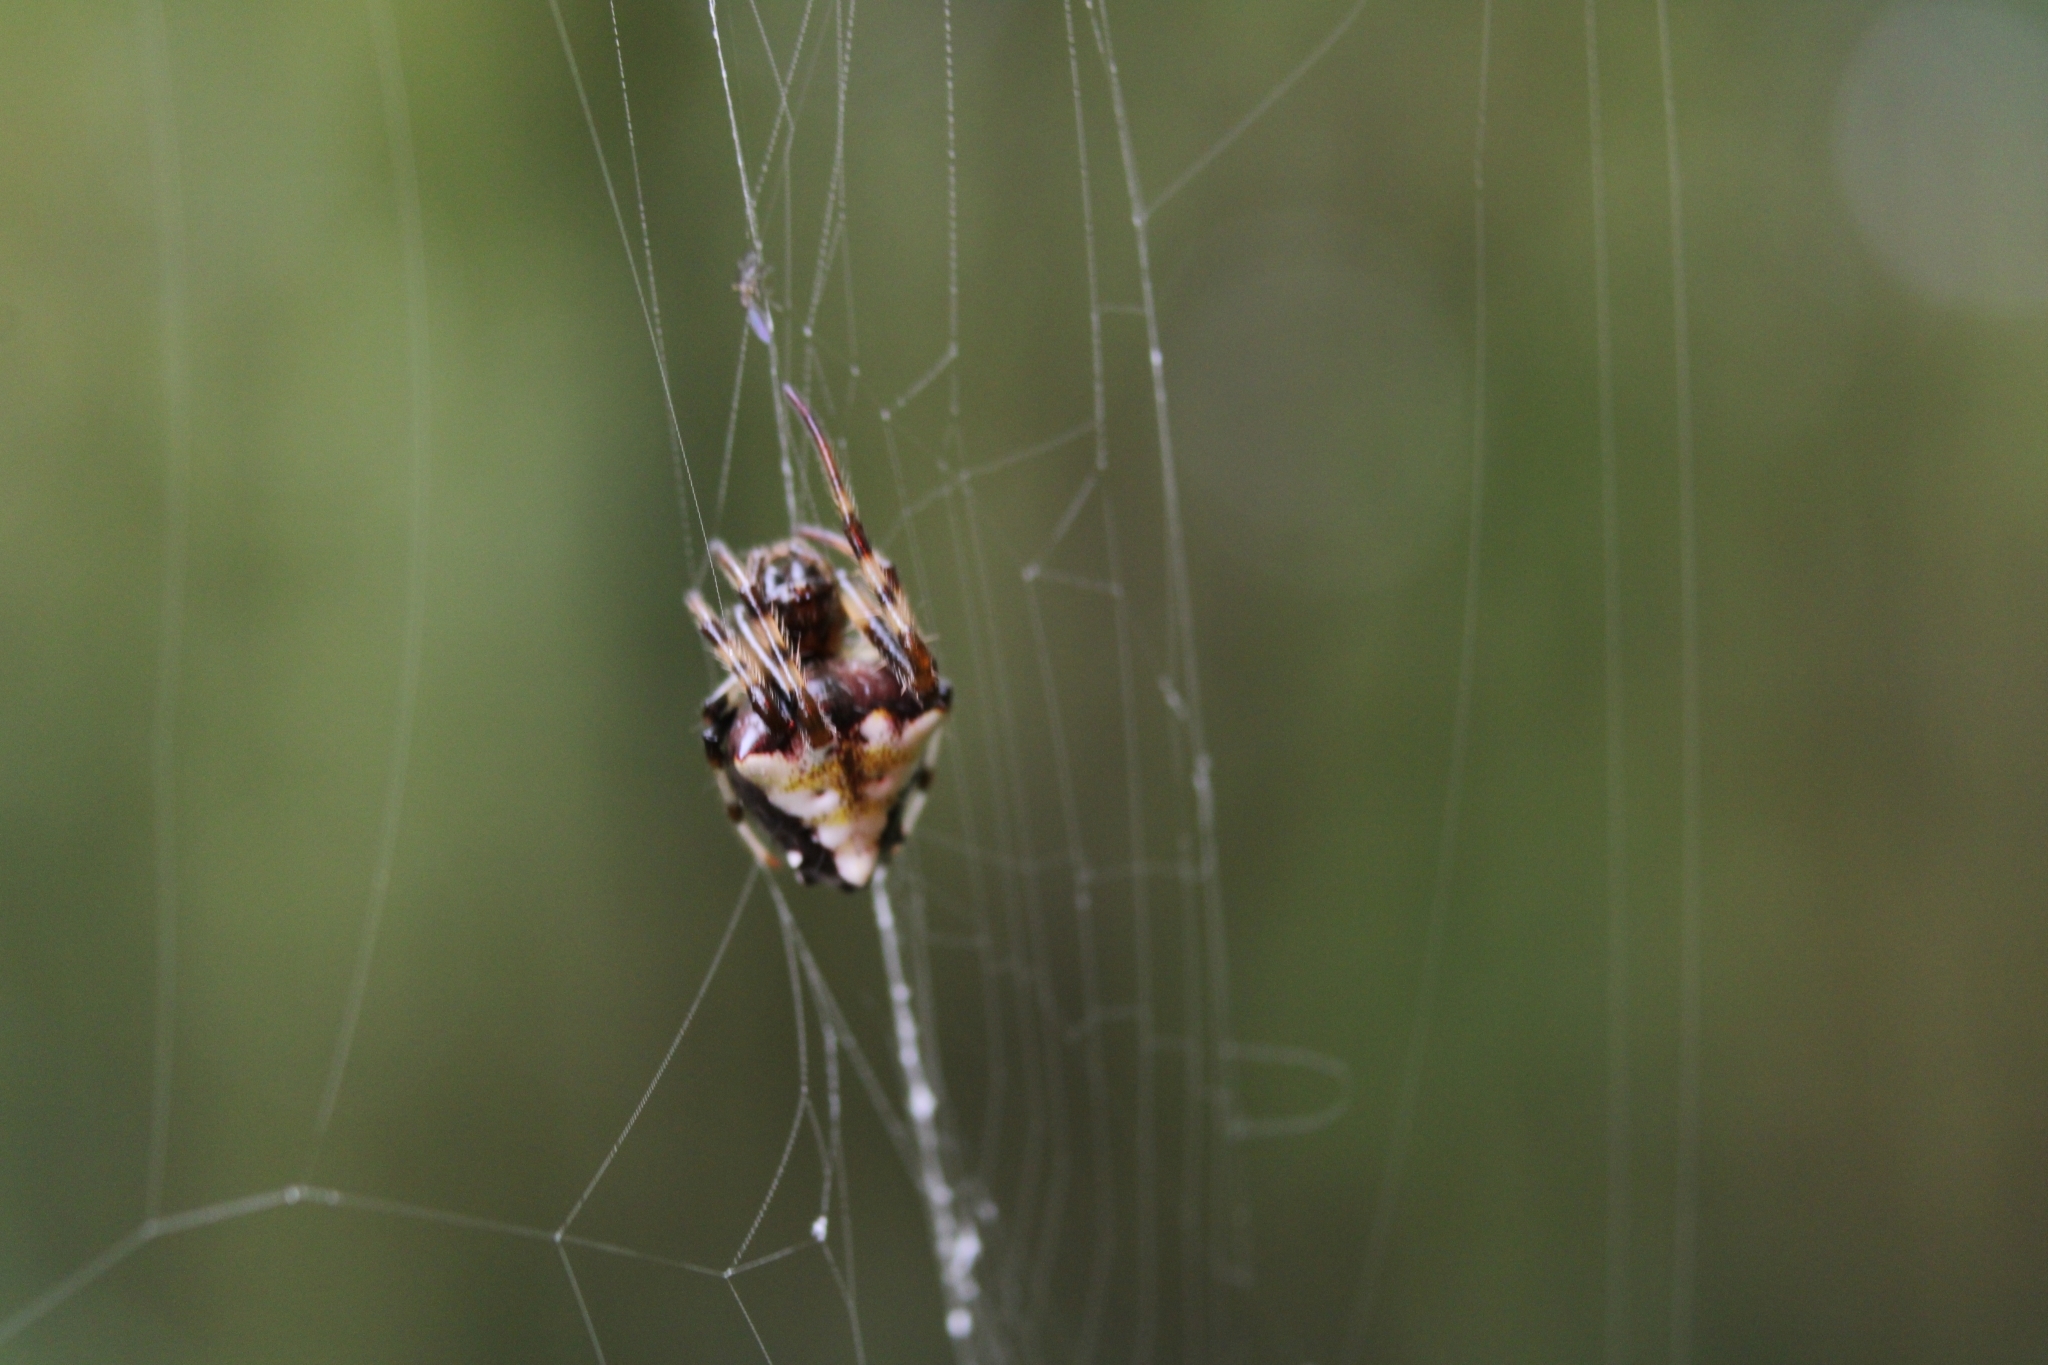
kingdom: Animalia
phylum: Arthropoda
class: Arachnida
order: Araneae
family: Araneidae
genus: Verrucosa
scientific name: Verrucosa arenata
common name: Orb weavers
